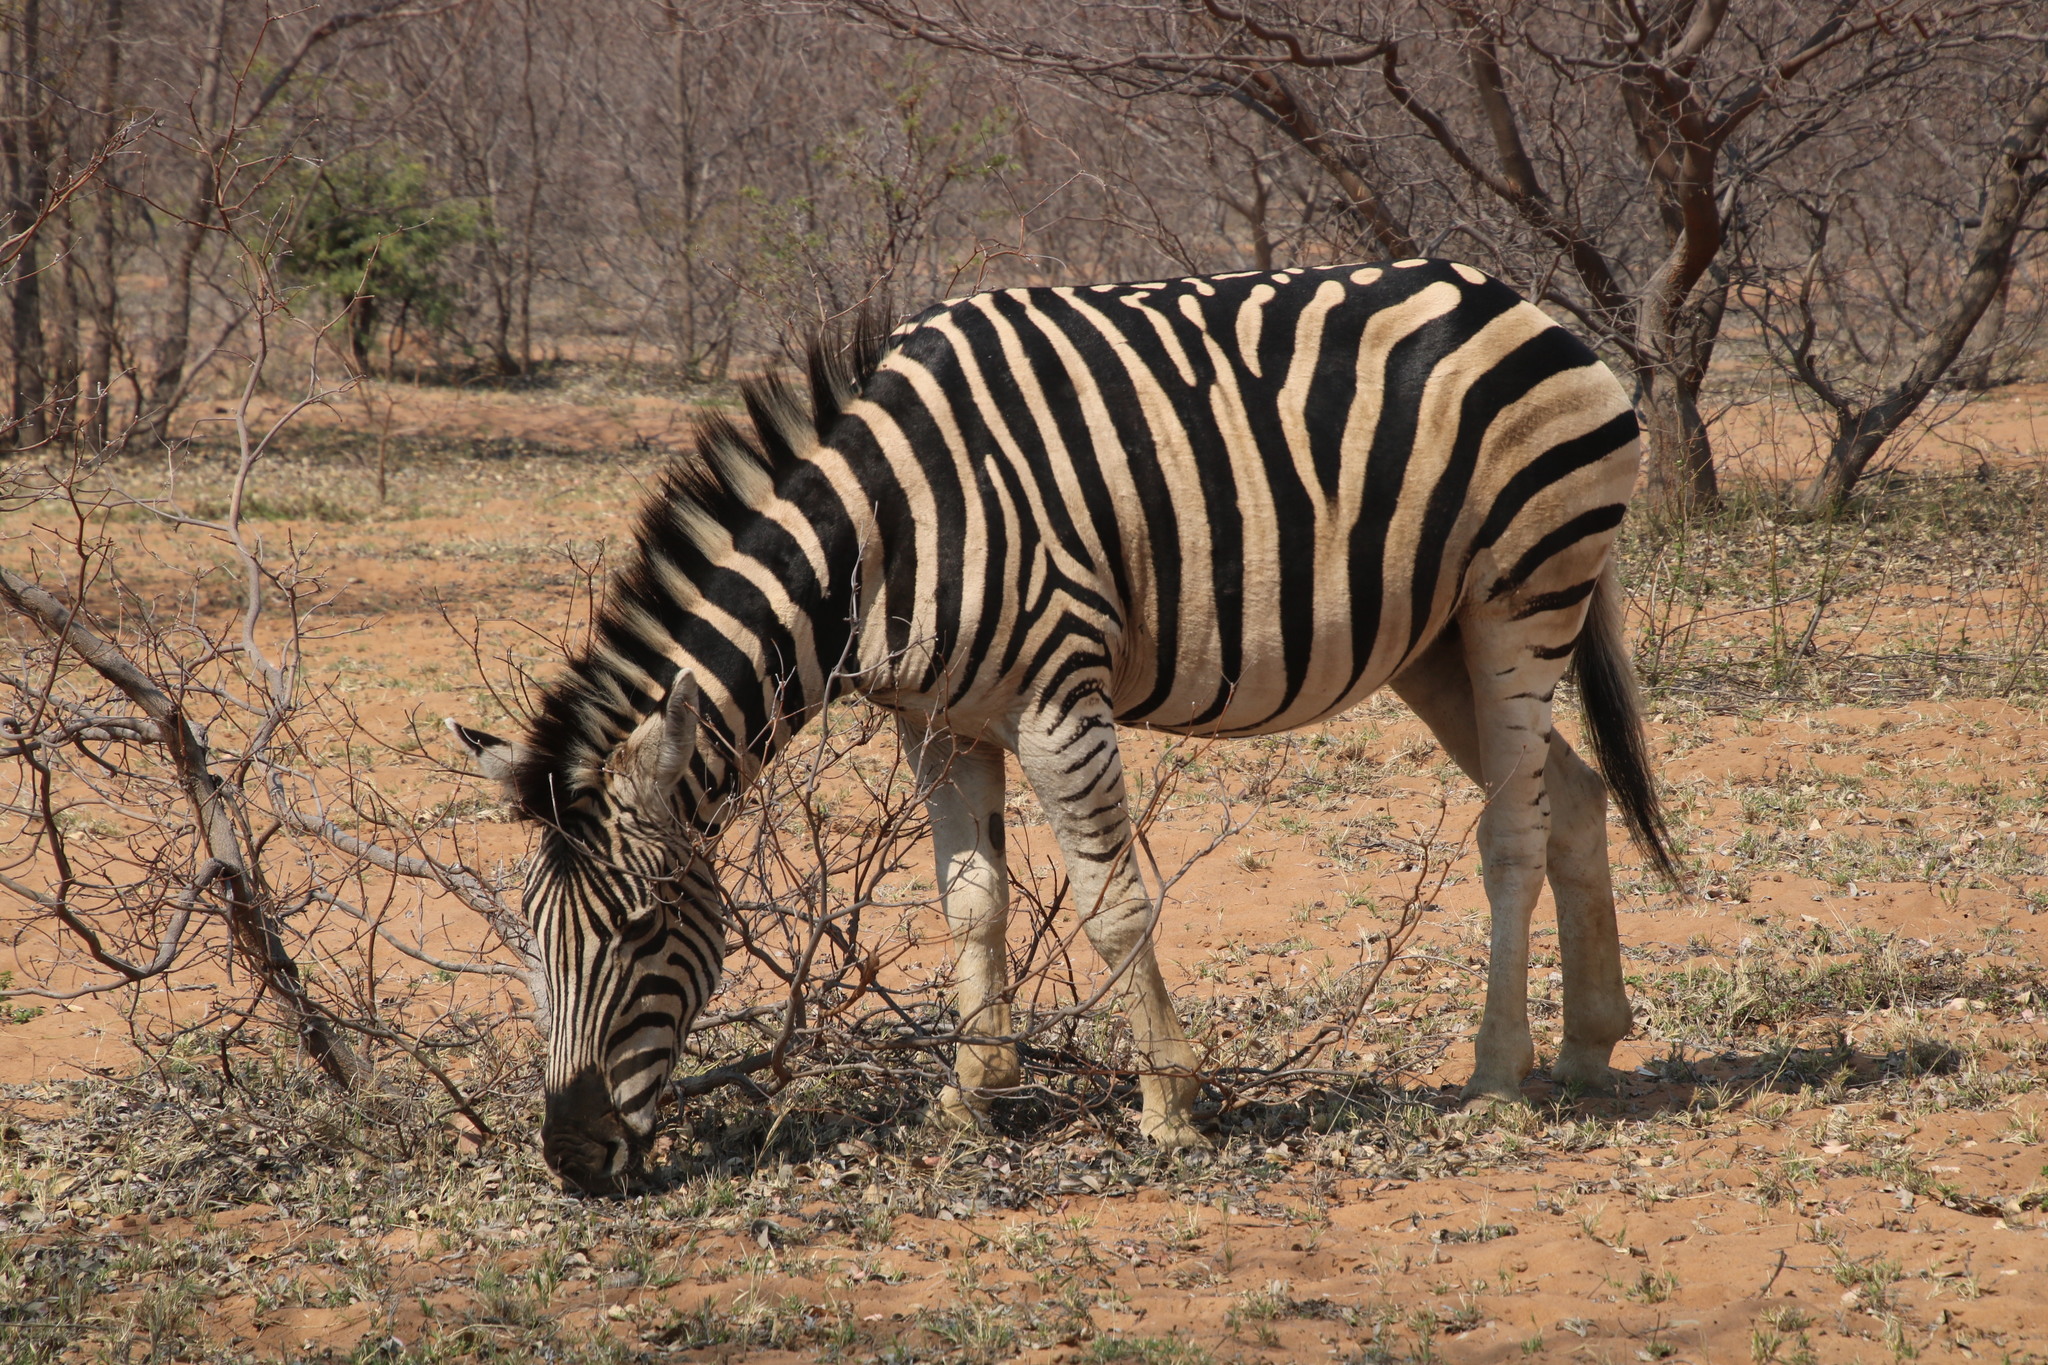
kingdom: Animalia
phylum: Chordata
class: Mammalia
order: Perissodactyla
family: Equidae
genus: Equus
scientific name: Equus quagga
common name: Plains zebra
